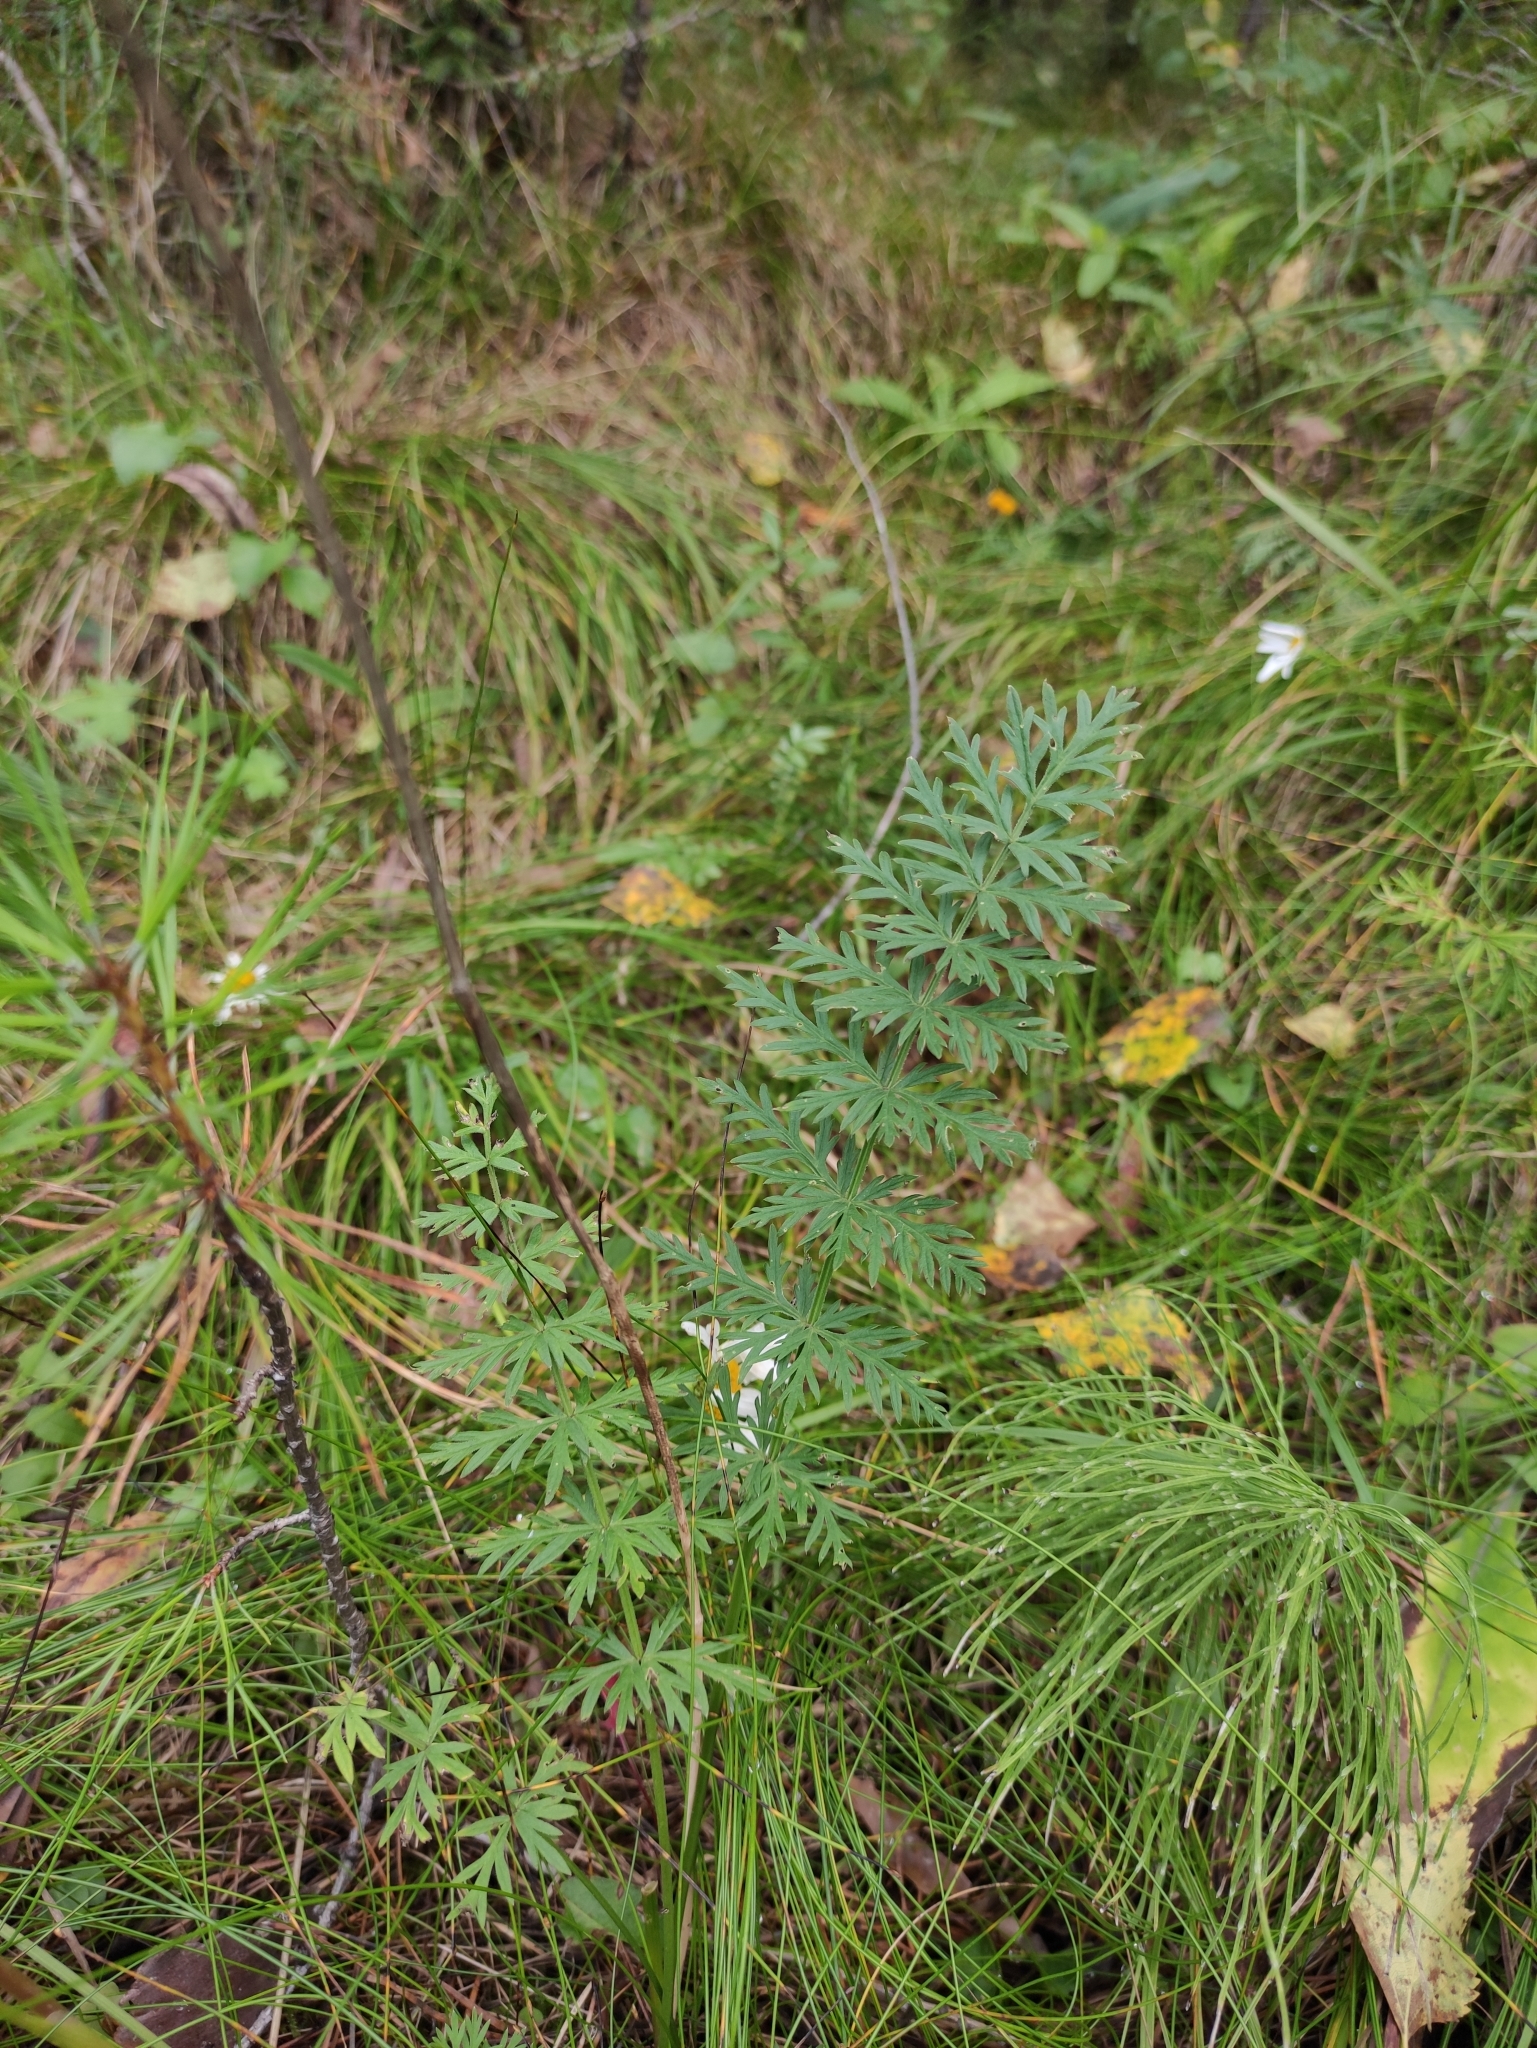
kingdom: Plantae
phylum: Tracheophyta
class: Magnoliopsida
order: Apiales
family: Apiaceae
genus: Seseli
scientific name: Seseli libanotis
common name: Mooncarrot
